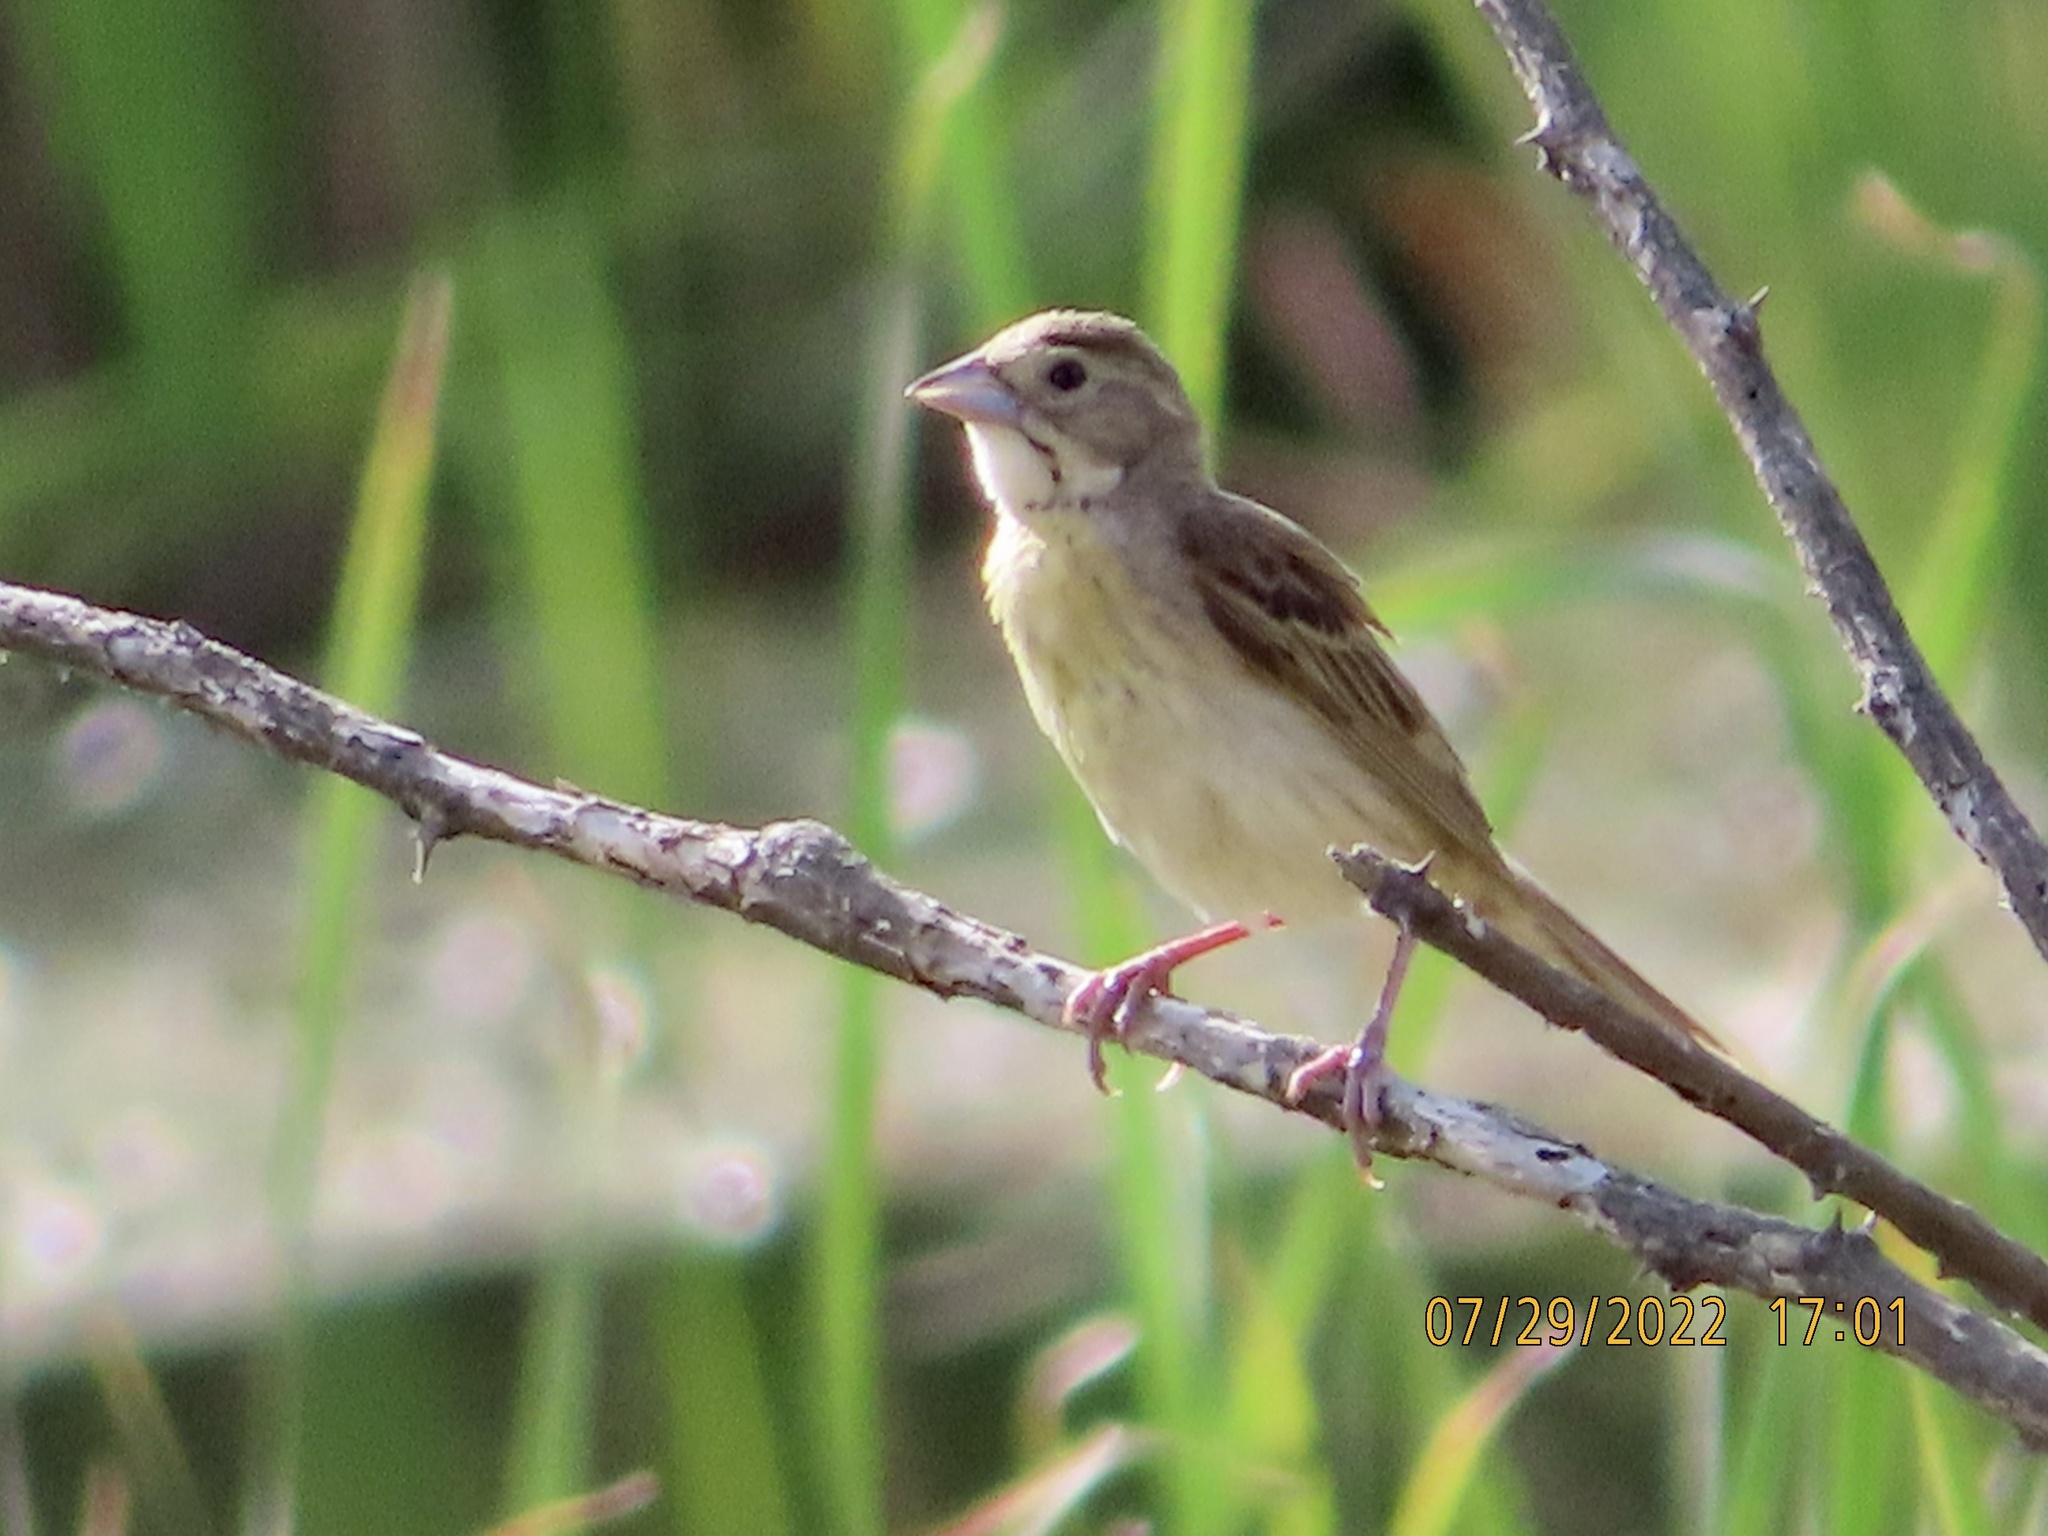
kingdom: Animalia
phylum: Chordata
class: Aves
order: Passeriformes
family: Cardinalidae
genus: Spiza
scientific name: Spiza americana
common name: Dickcissel
